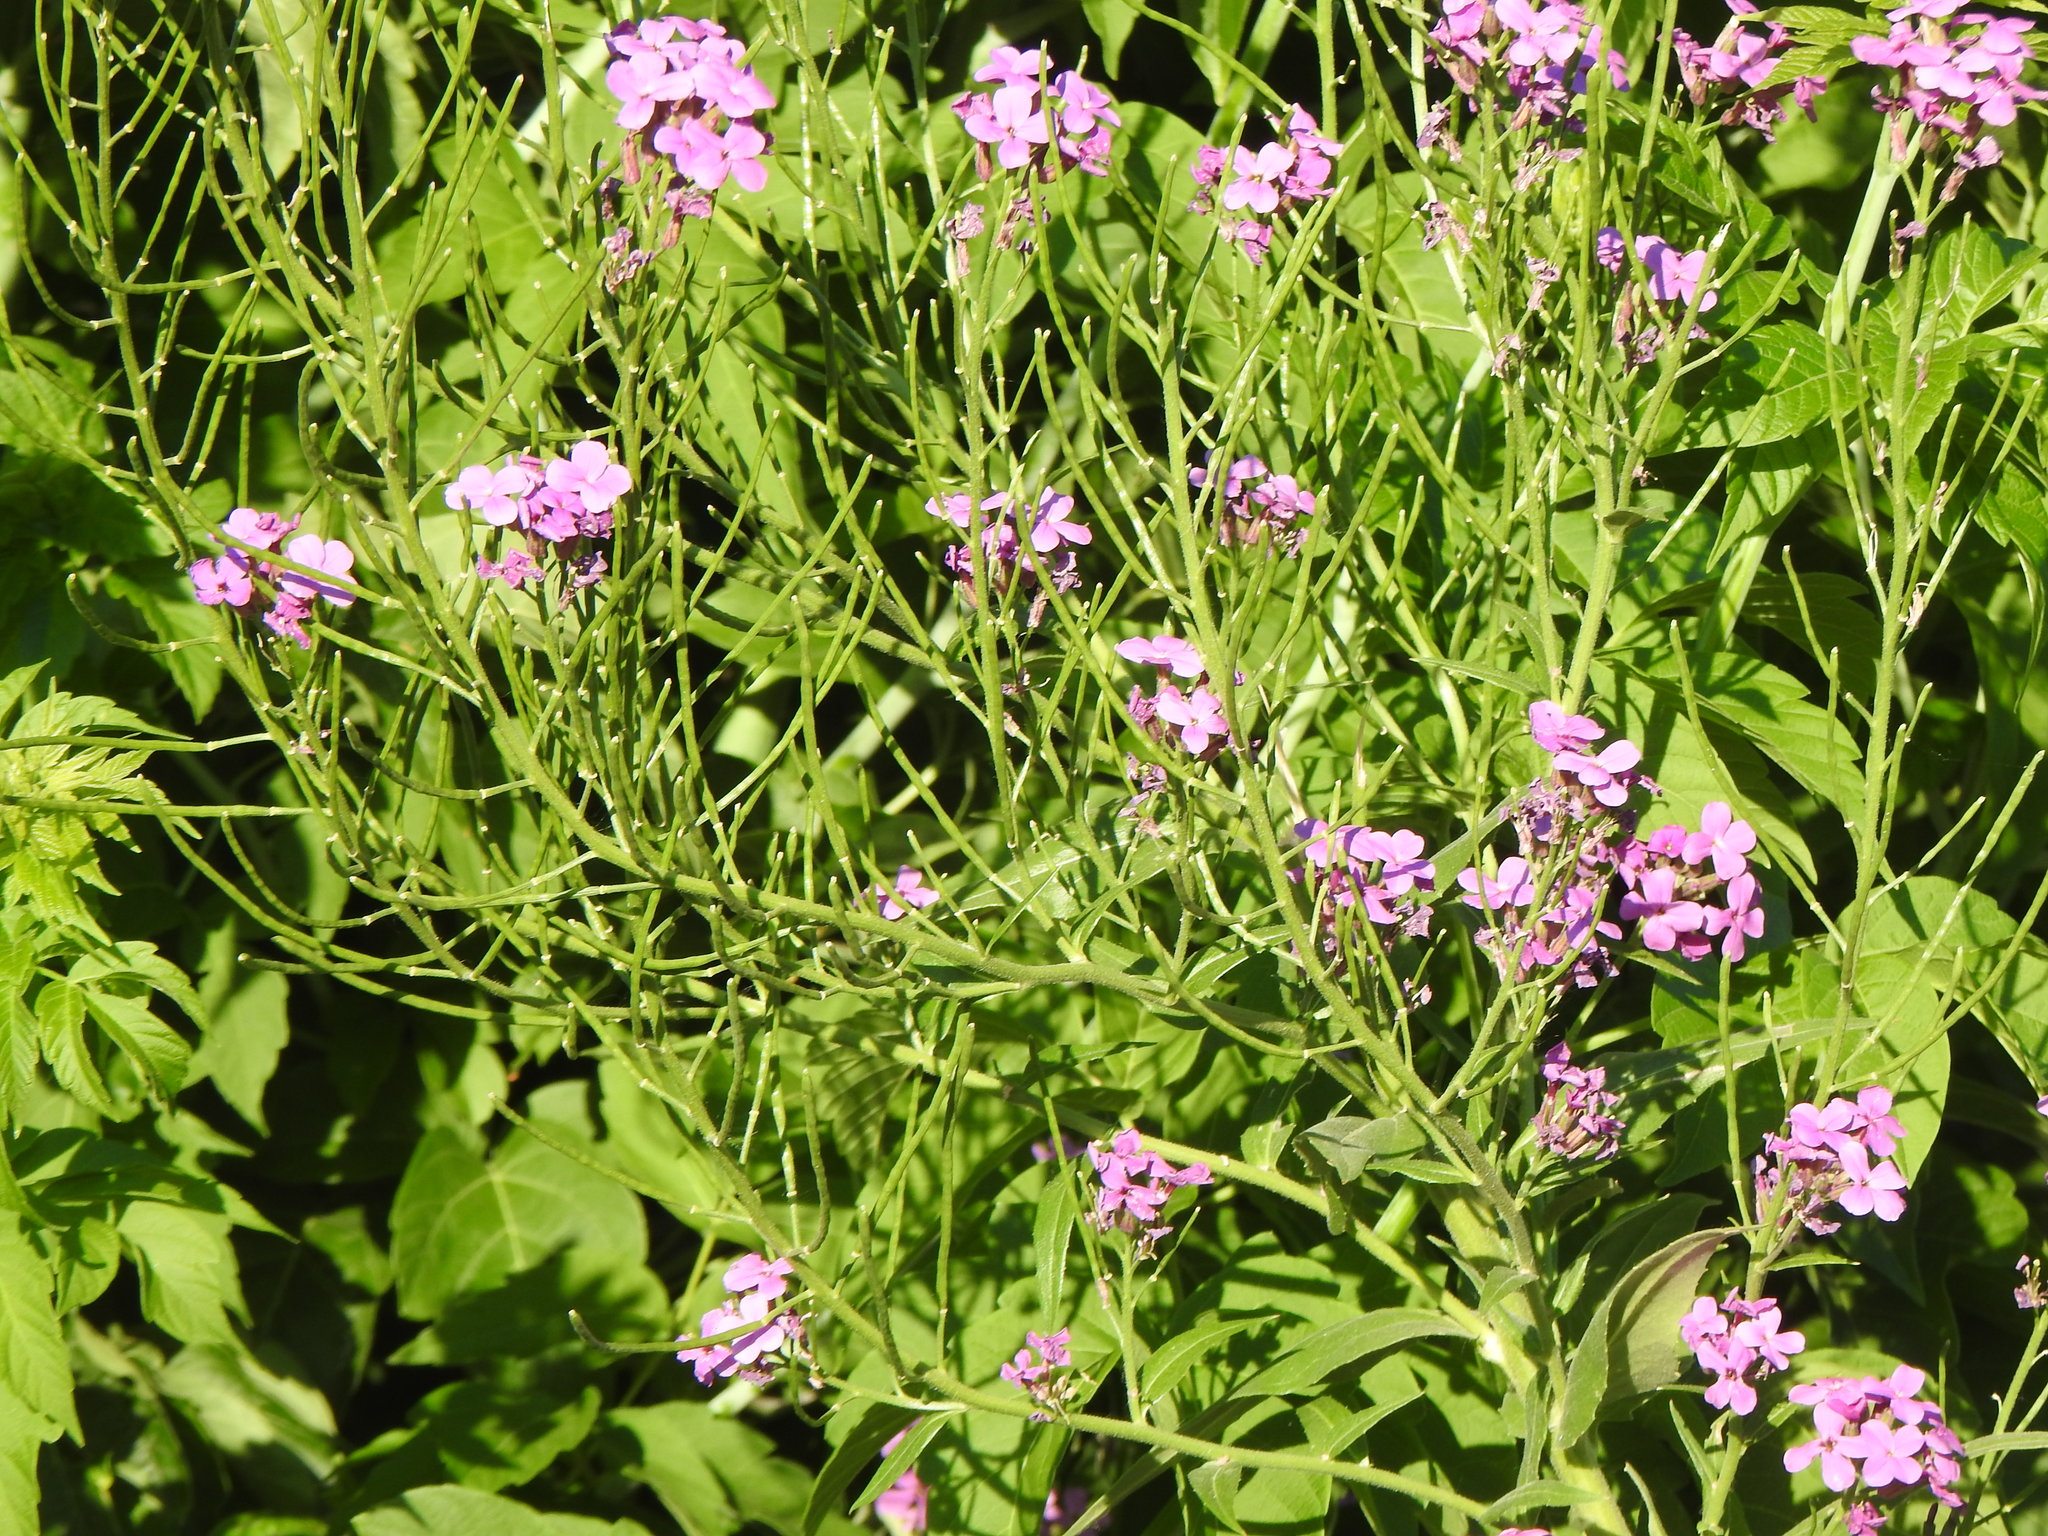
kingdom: Plantae
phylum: Tracheophyta
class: Magnoliopsida
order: Brassicales
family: Brassicaceae
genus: Hesperis
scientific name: Hesperis matronalis
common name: Dame's-violet
